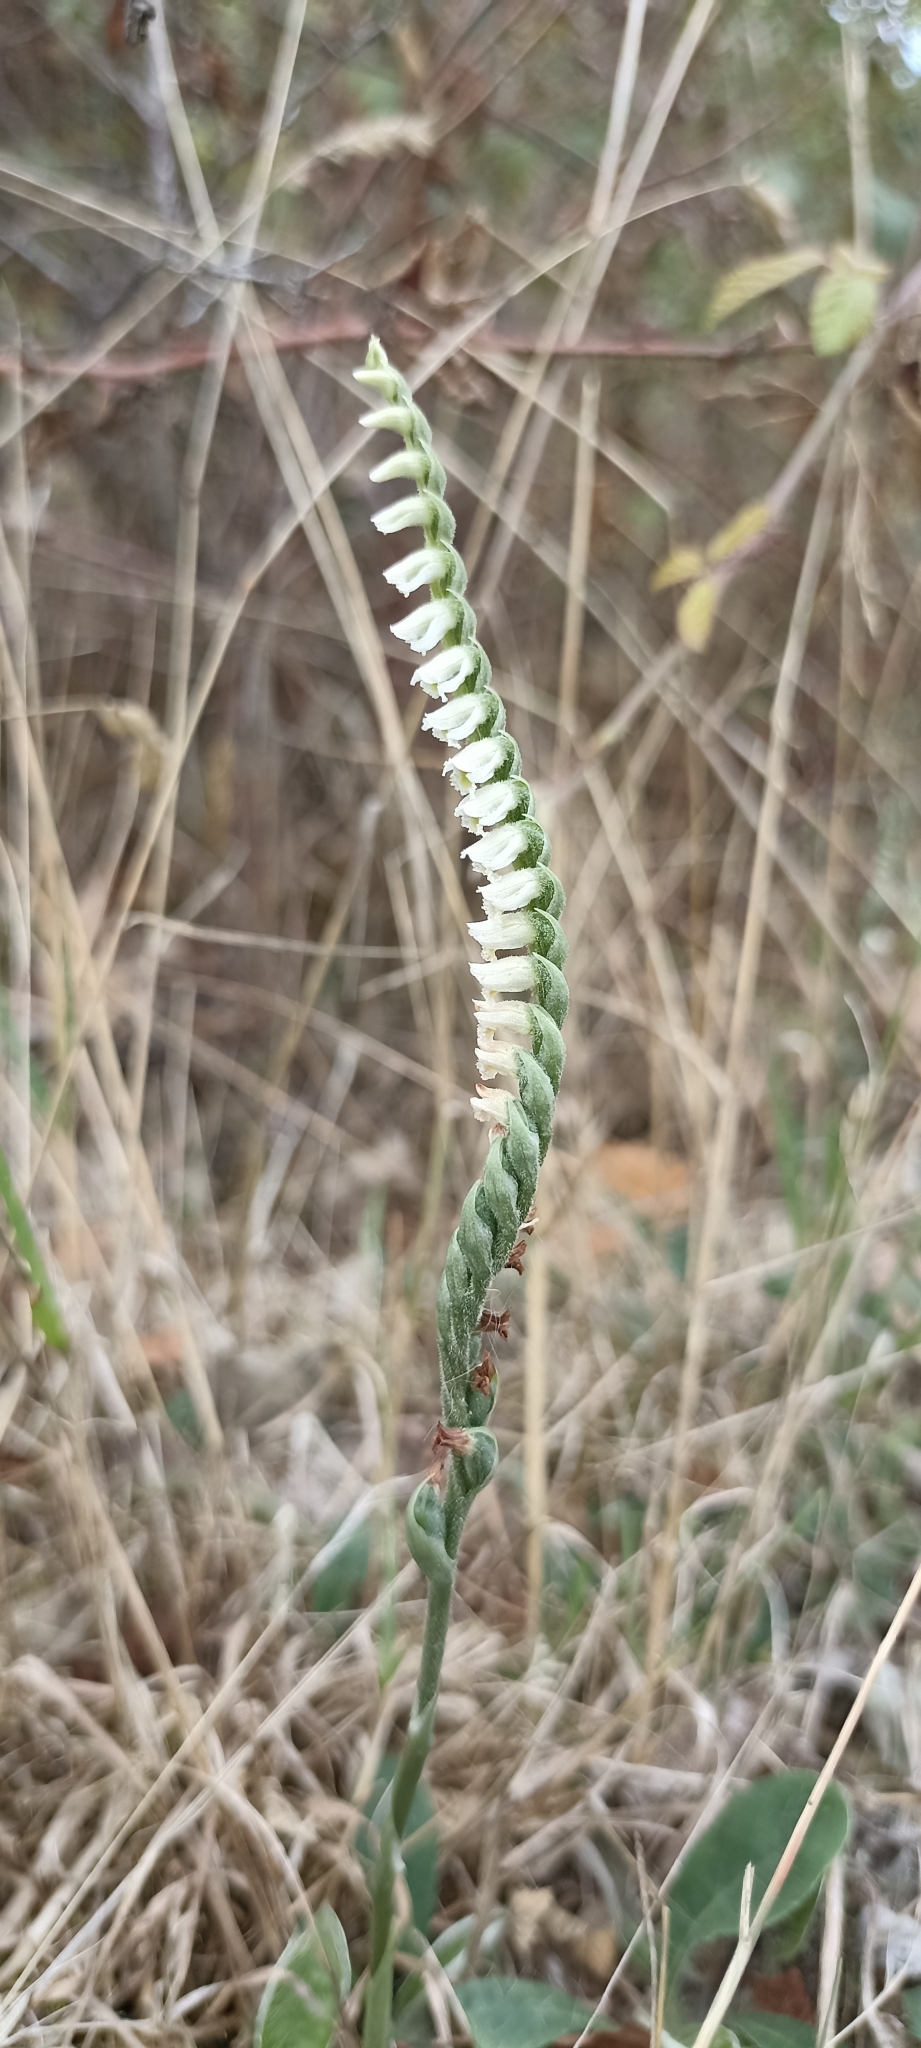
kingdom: Plantae
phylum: Tracheophyta
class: Liliopsida
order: Asparagales
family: Orchidaceae
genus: Spiranthes
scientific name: Spiranthes spiralis
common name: Autumn lady's-tresses
